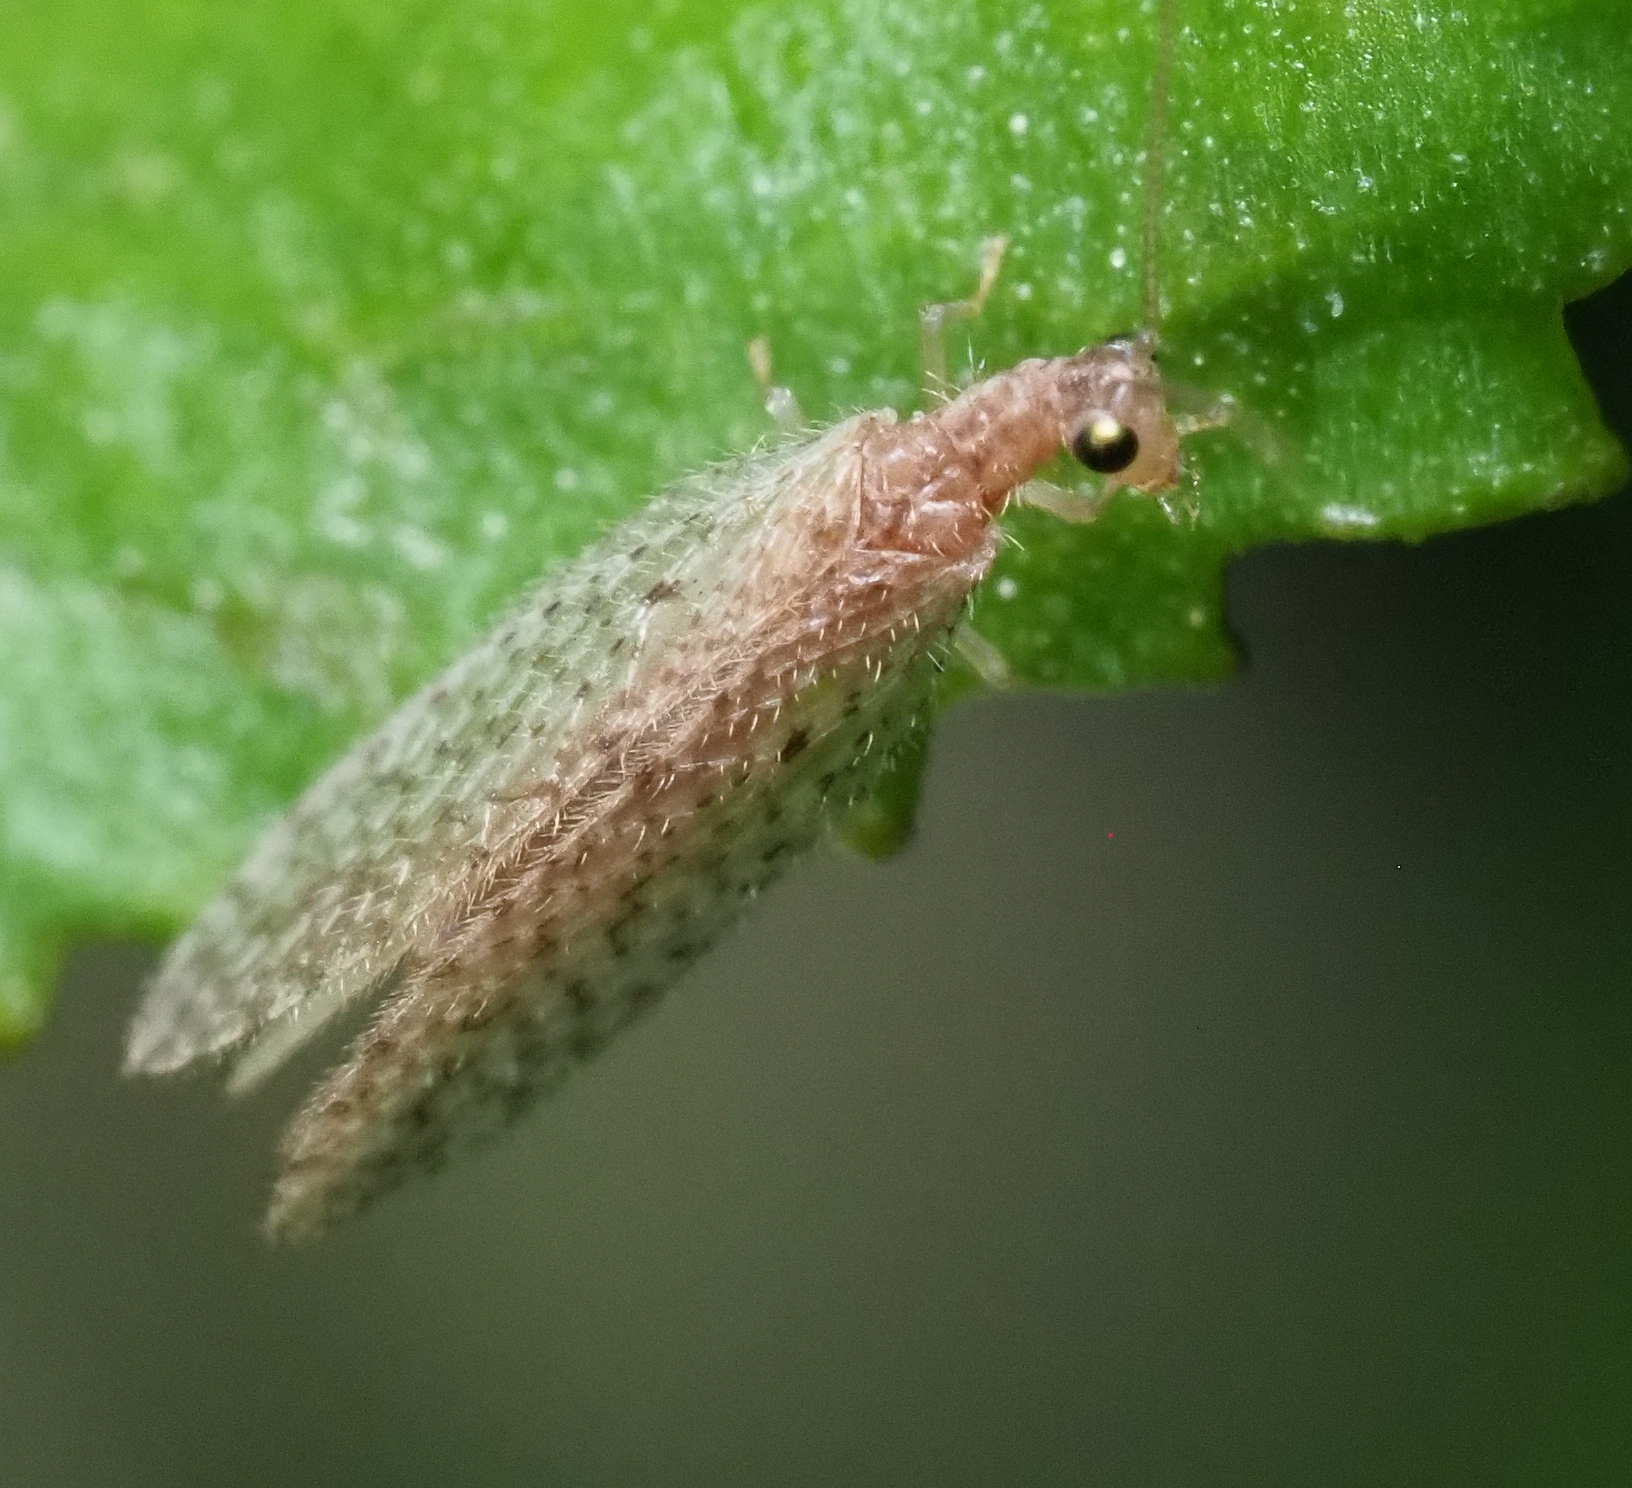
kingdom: Animalia
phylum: Arthropoda
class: Insecta
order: Neuroptera
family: Hemerobiidae
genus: Micromus
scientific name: Micromus tasmaniae
